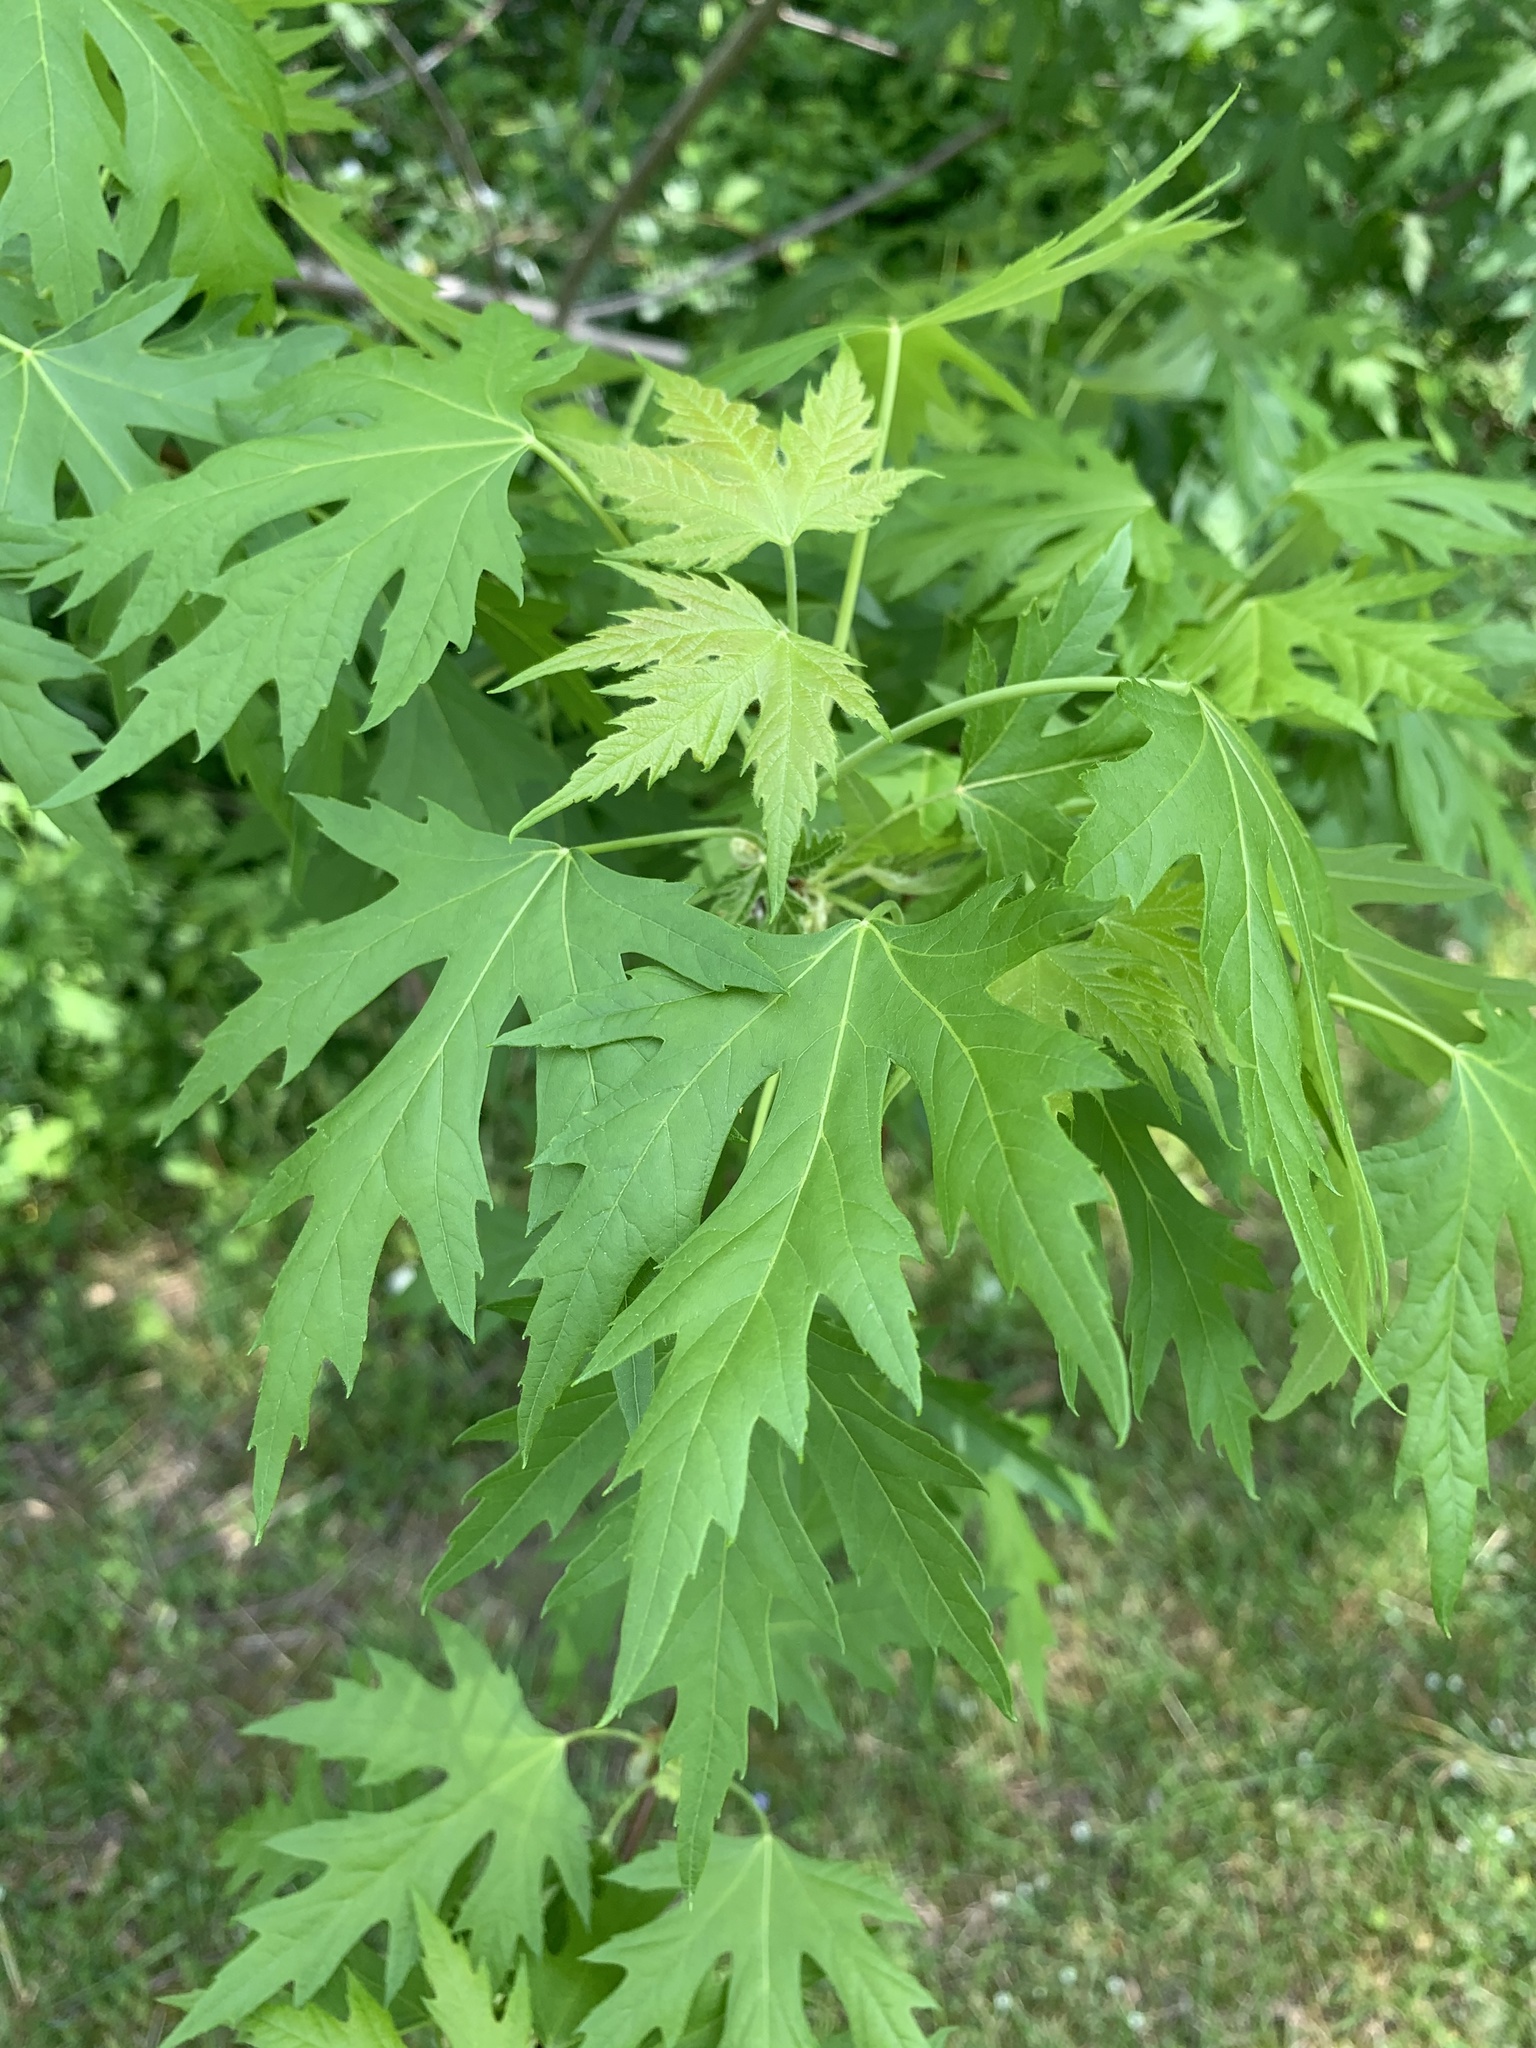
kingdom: Plantae
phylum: Tracheophyta
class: Magnoliopsida
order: Sapindales
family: Sapindaceae
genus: Acer
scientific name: Acer saccharinum
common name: Silver maple
